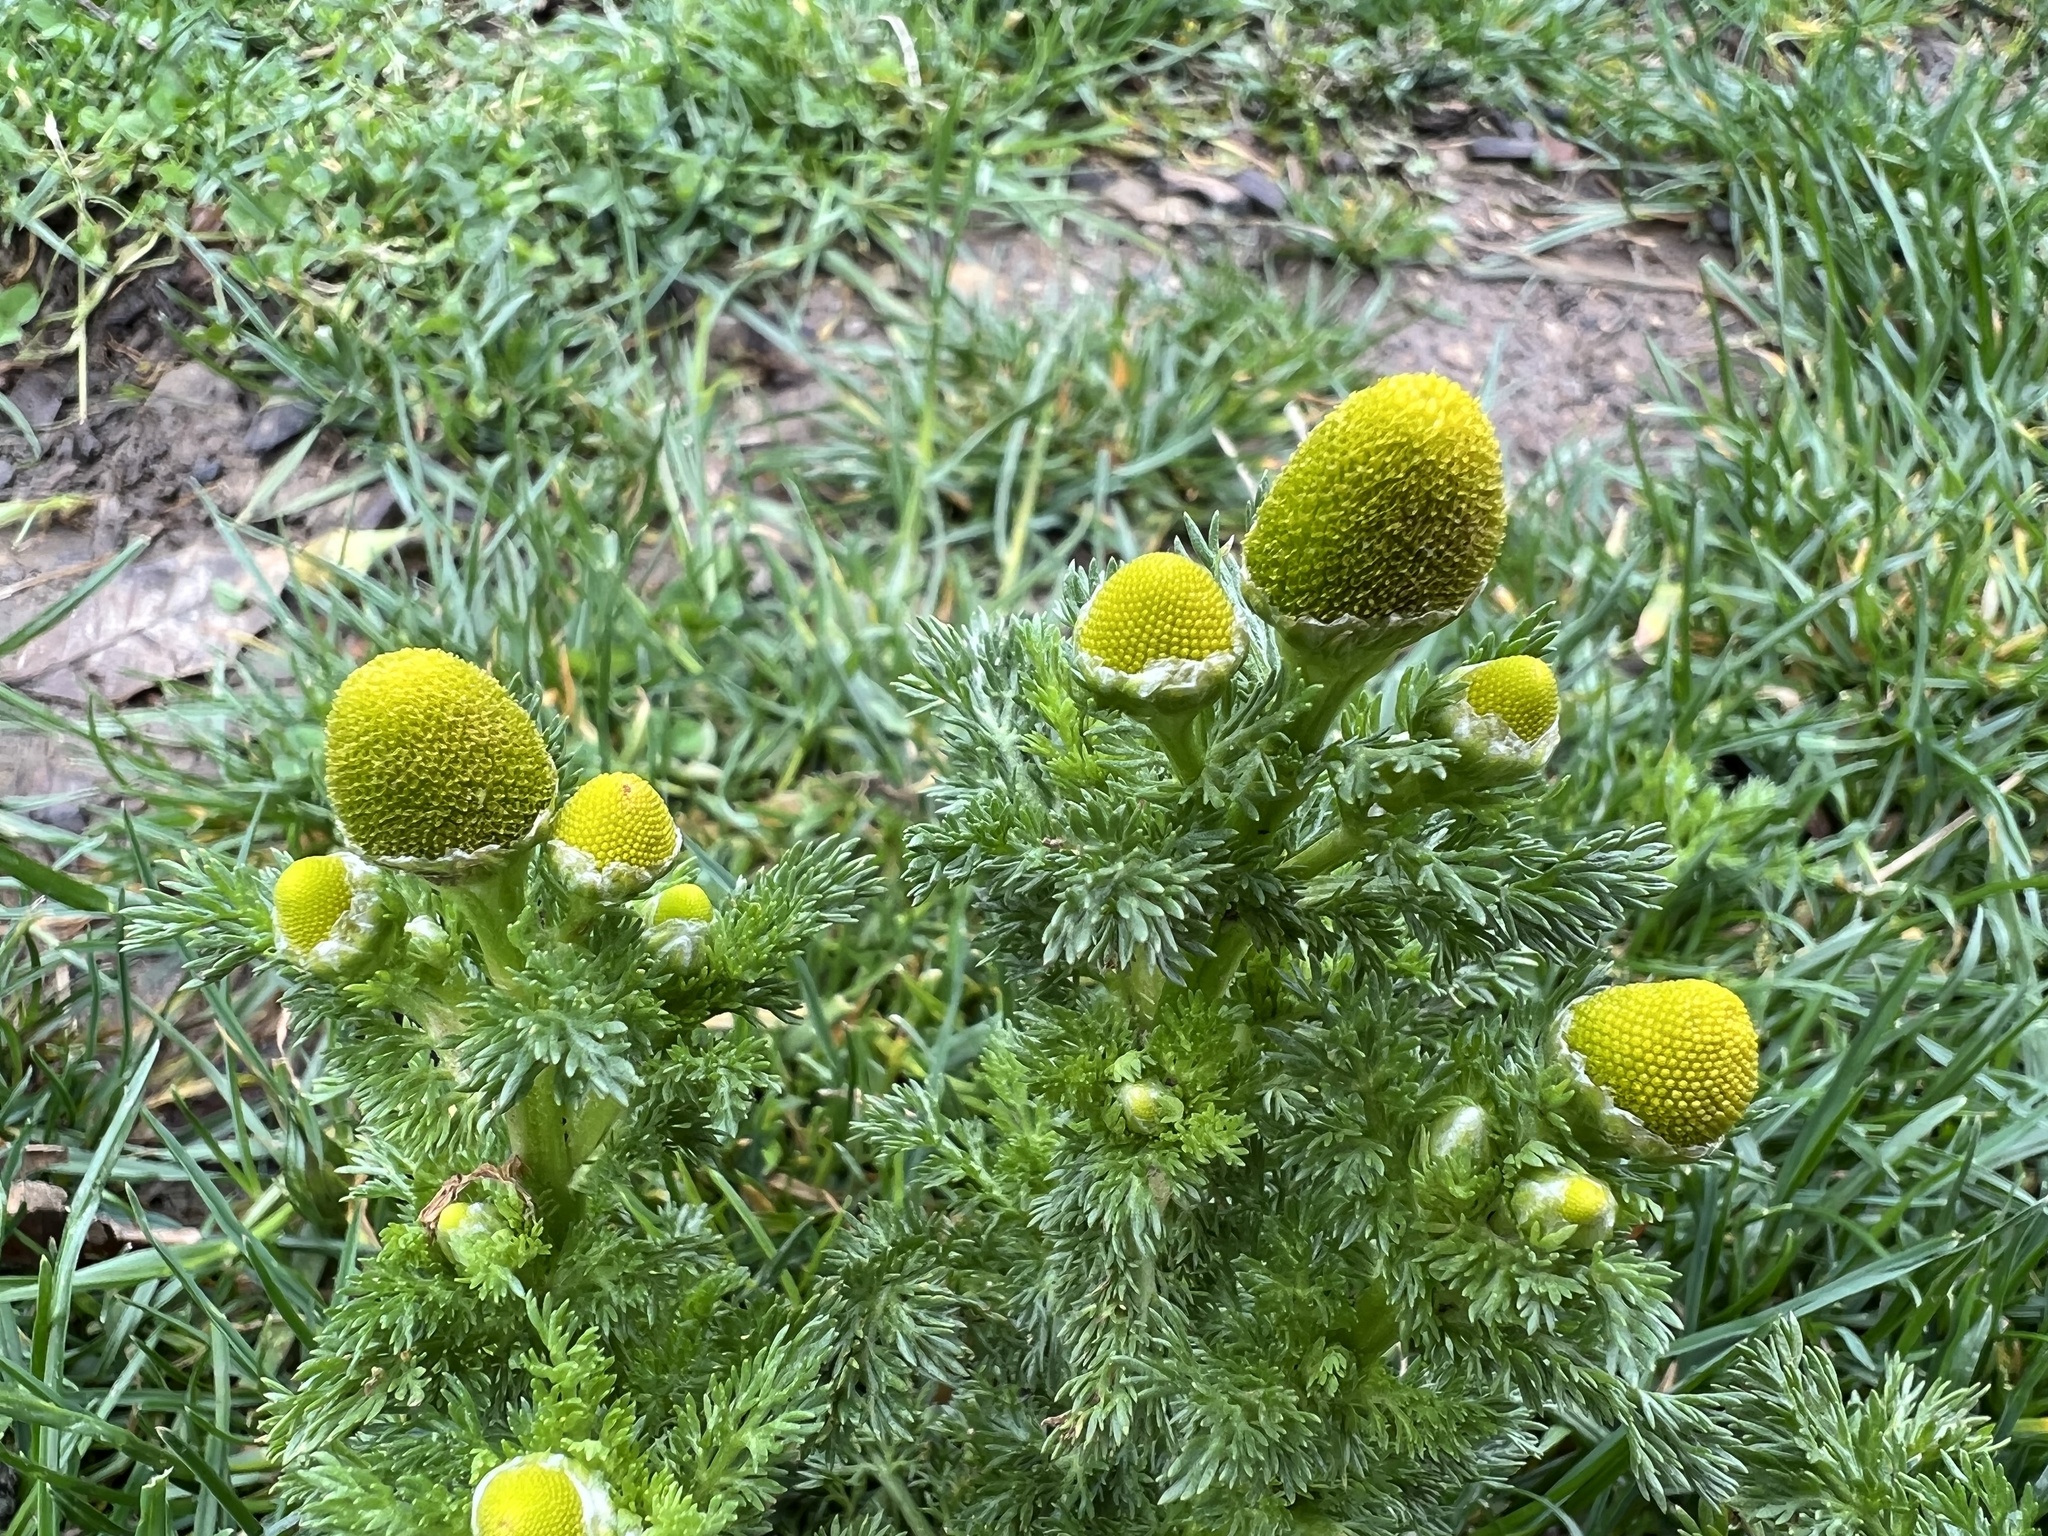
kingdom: Plantae
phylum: Tracheophyta
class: Magnoliopsida
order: Asterales
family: Asteraceae
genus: Matricaria
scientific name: Matricaria discoidea
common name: Disc mayweed
